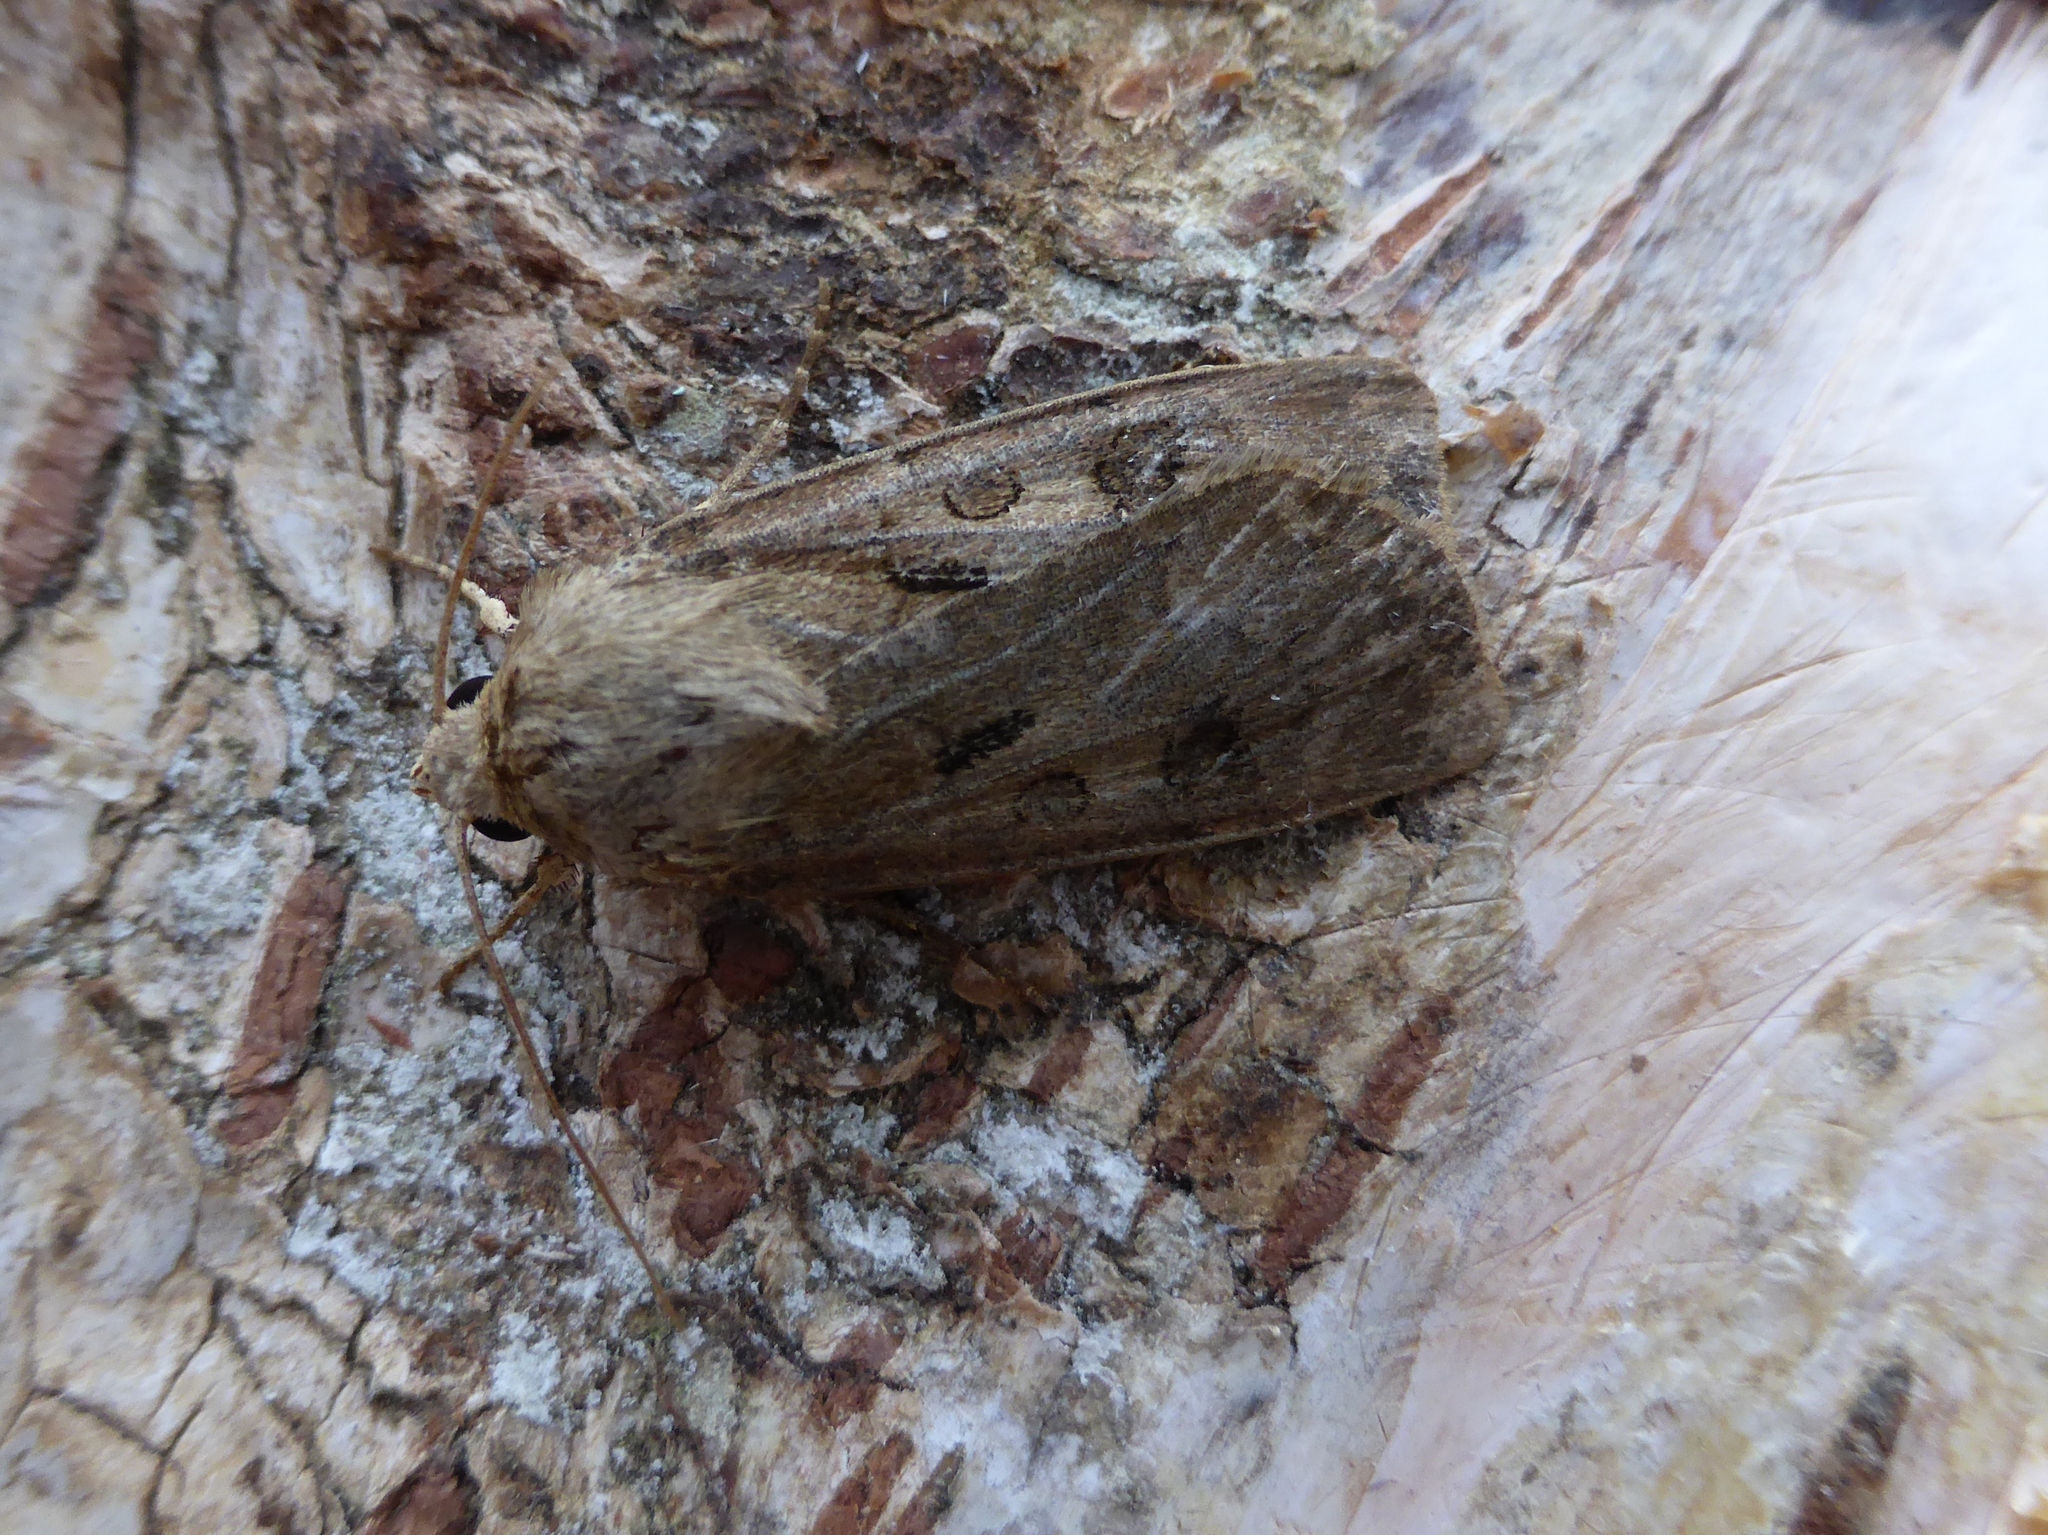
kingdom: Animalia
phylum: Arthropoda
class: Insecta
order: Lepidoptera
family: Noctuidae
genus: Agrotis
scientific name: Agrotis exclamationis
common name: Heart and dart
